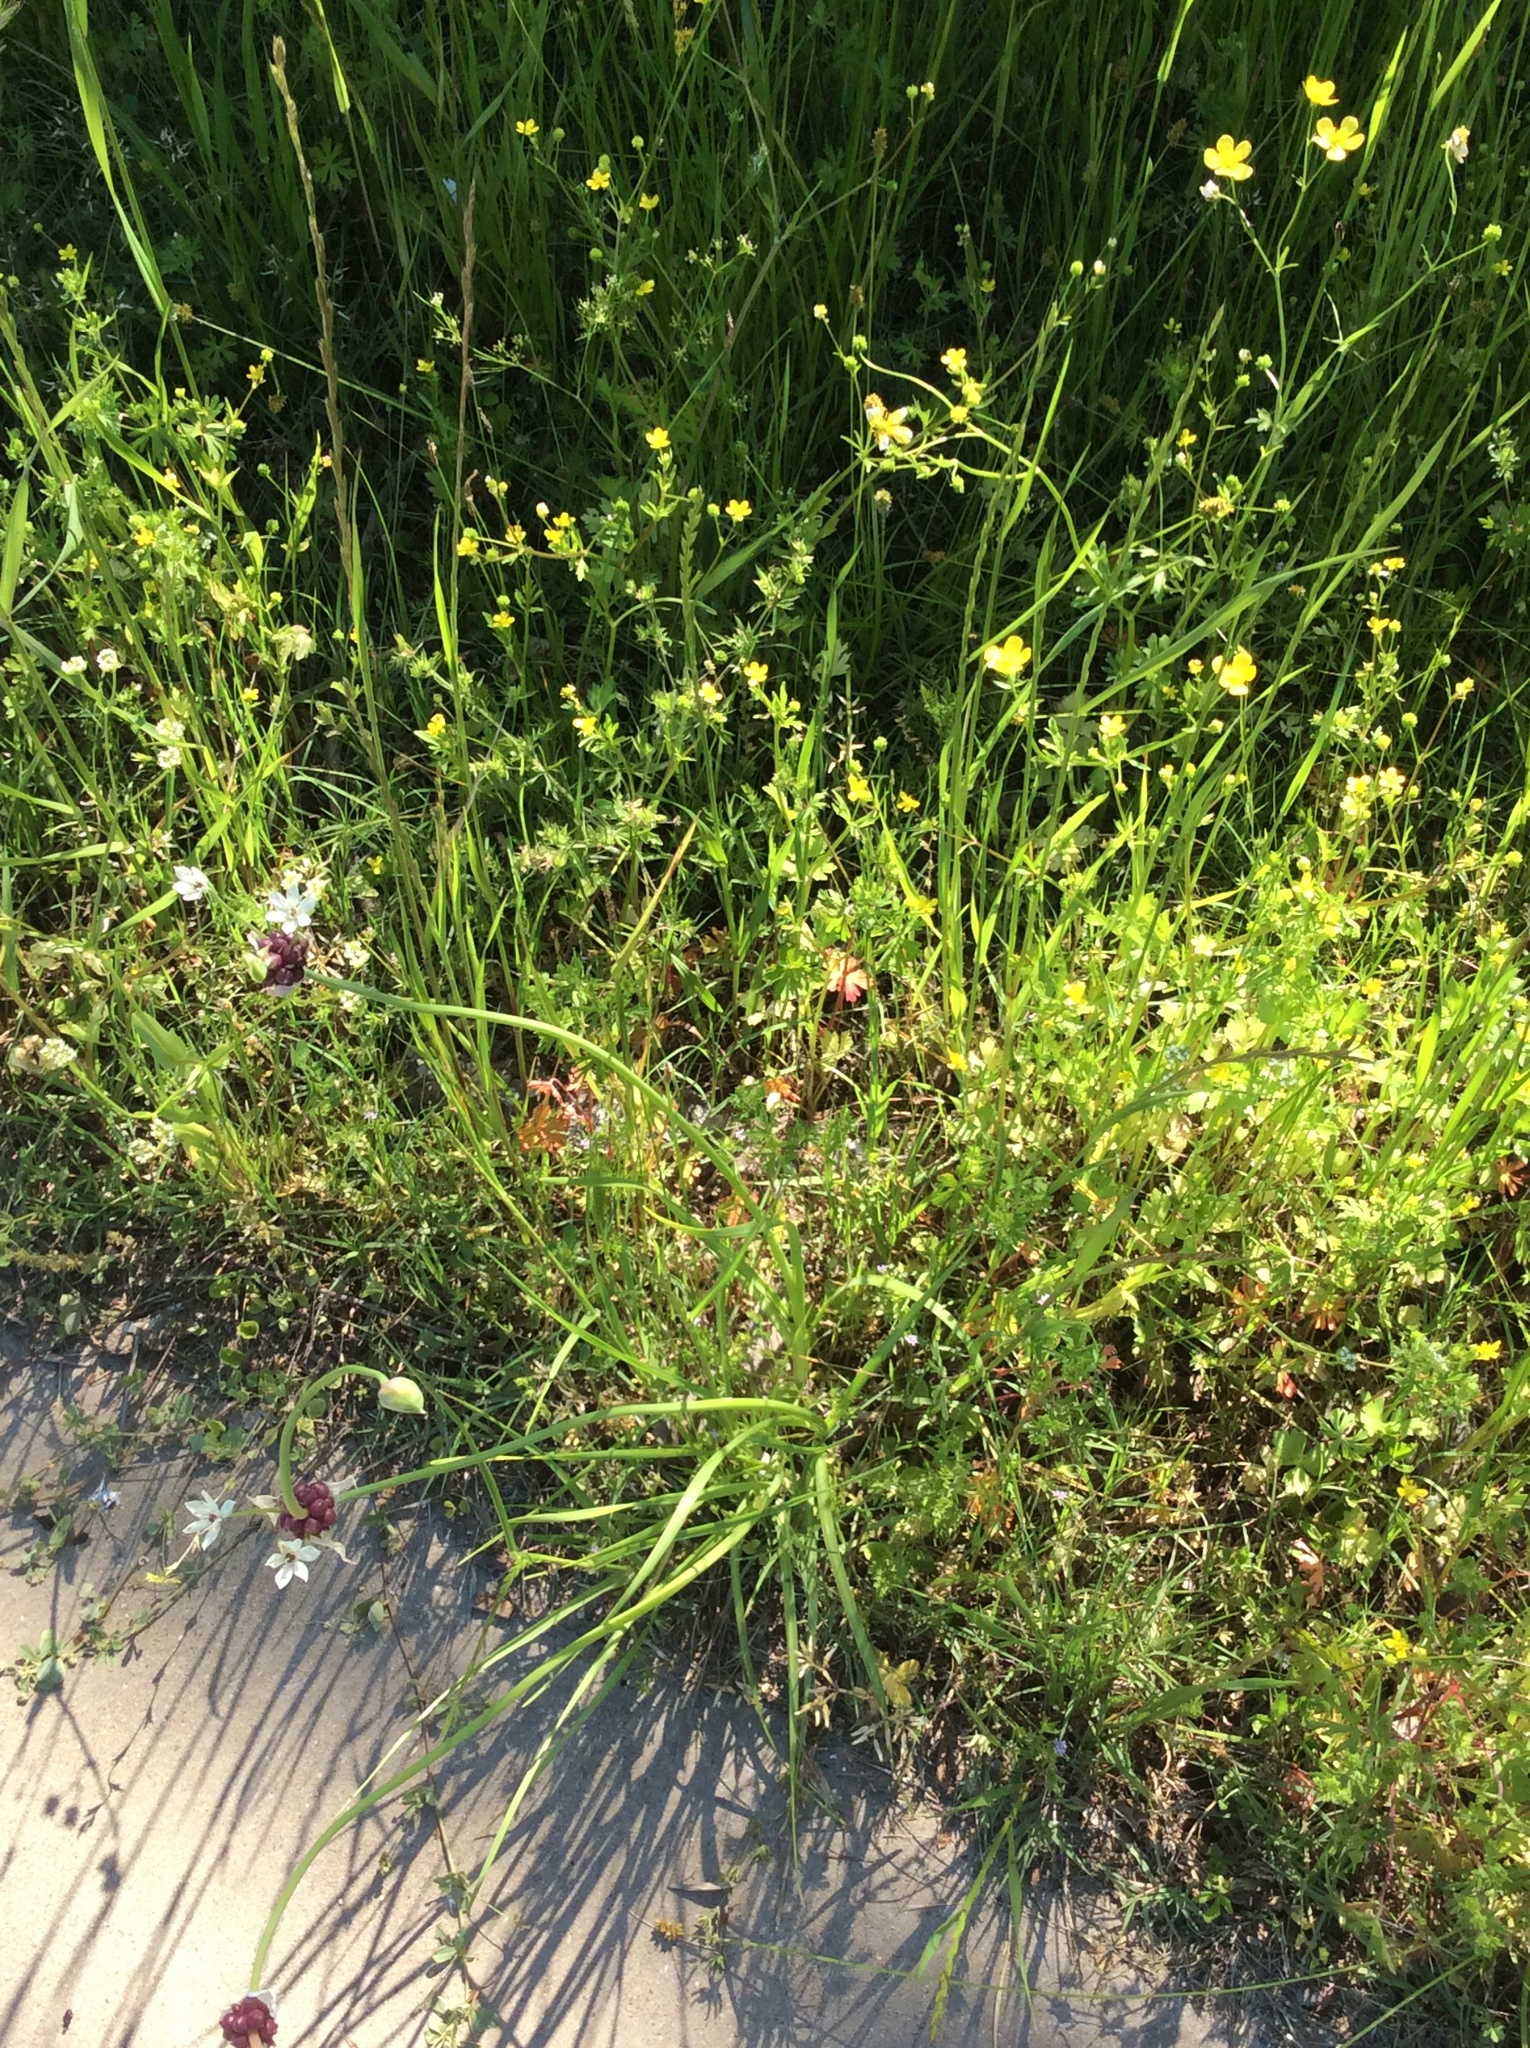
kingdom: Plantae
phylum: Tracheophyta
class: Liliopsida
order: Asparagales
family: Amaryllidaceae
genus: Allium
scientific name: Allium canadense
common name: Meadow garlic
